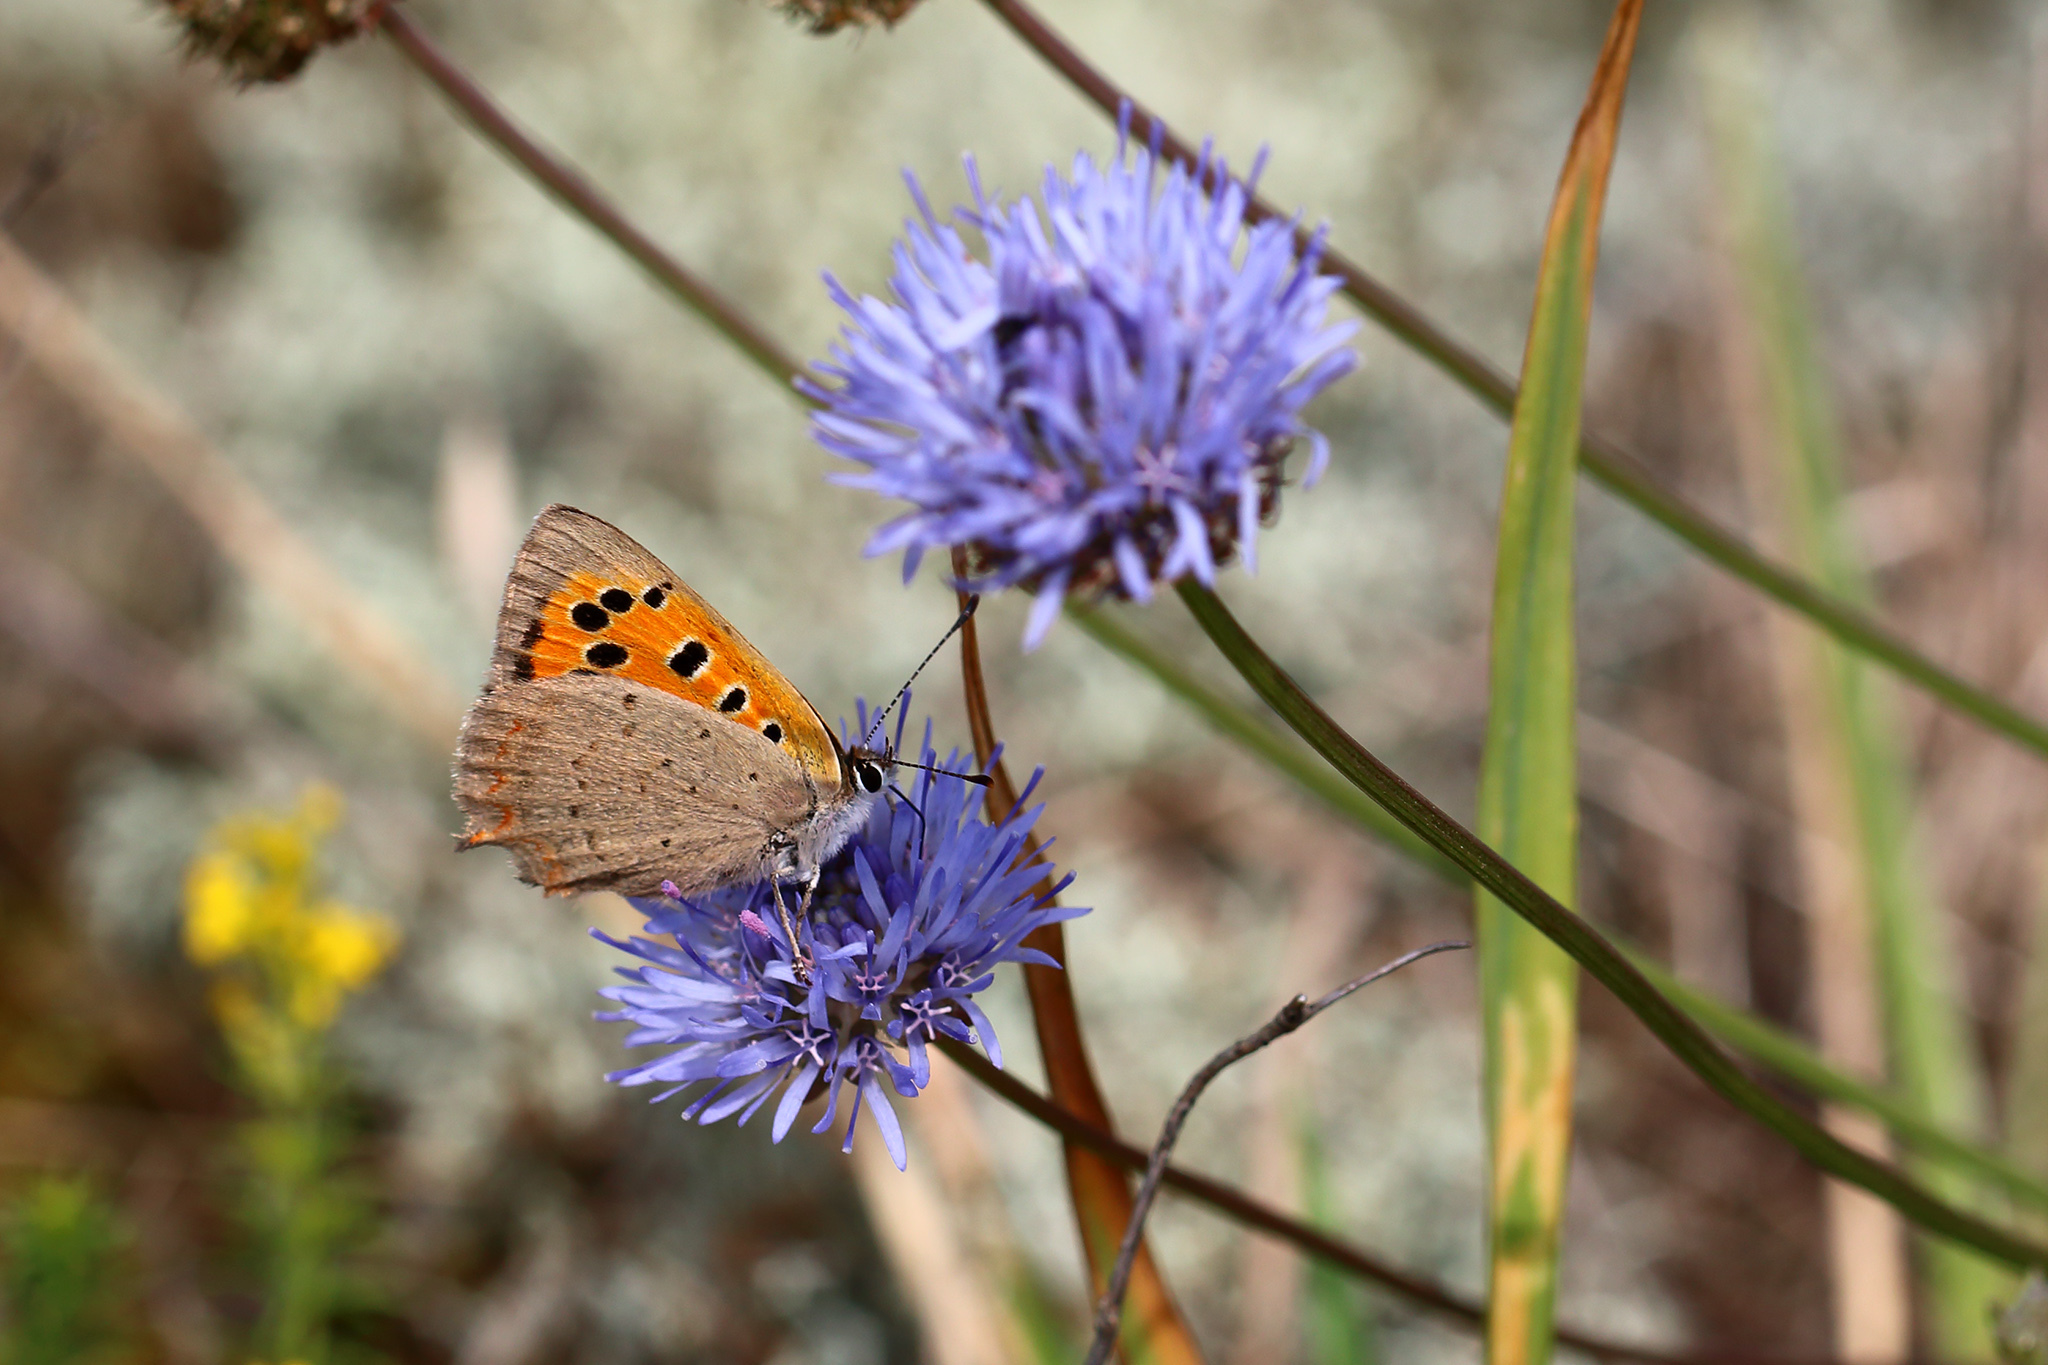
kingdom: Animalia
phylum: Arthropoda
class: Insecta
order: Lepidoptera
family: Lycaenidae
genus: Lycaena
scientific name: Lycaena phlaeas
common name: Small copper
